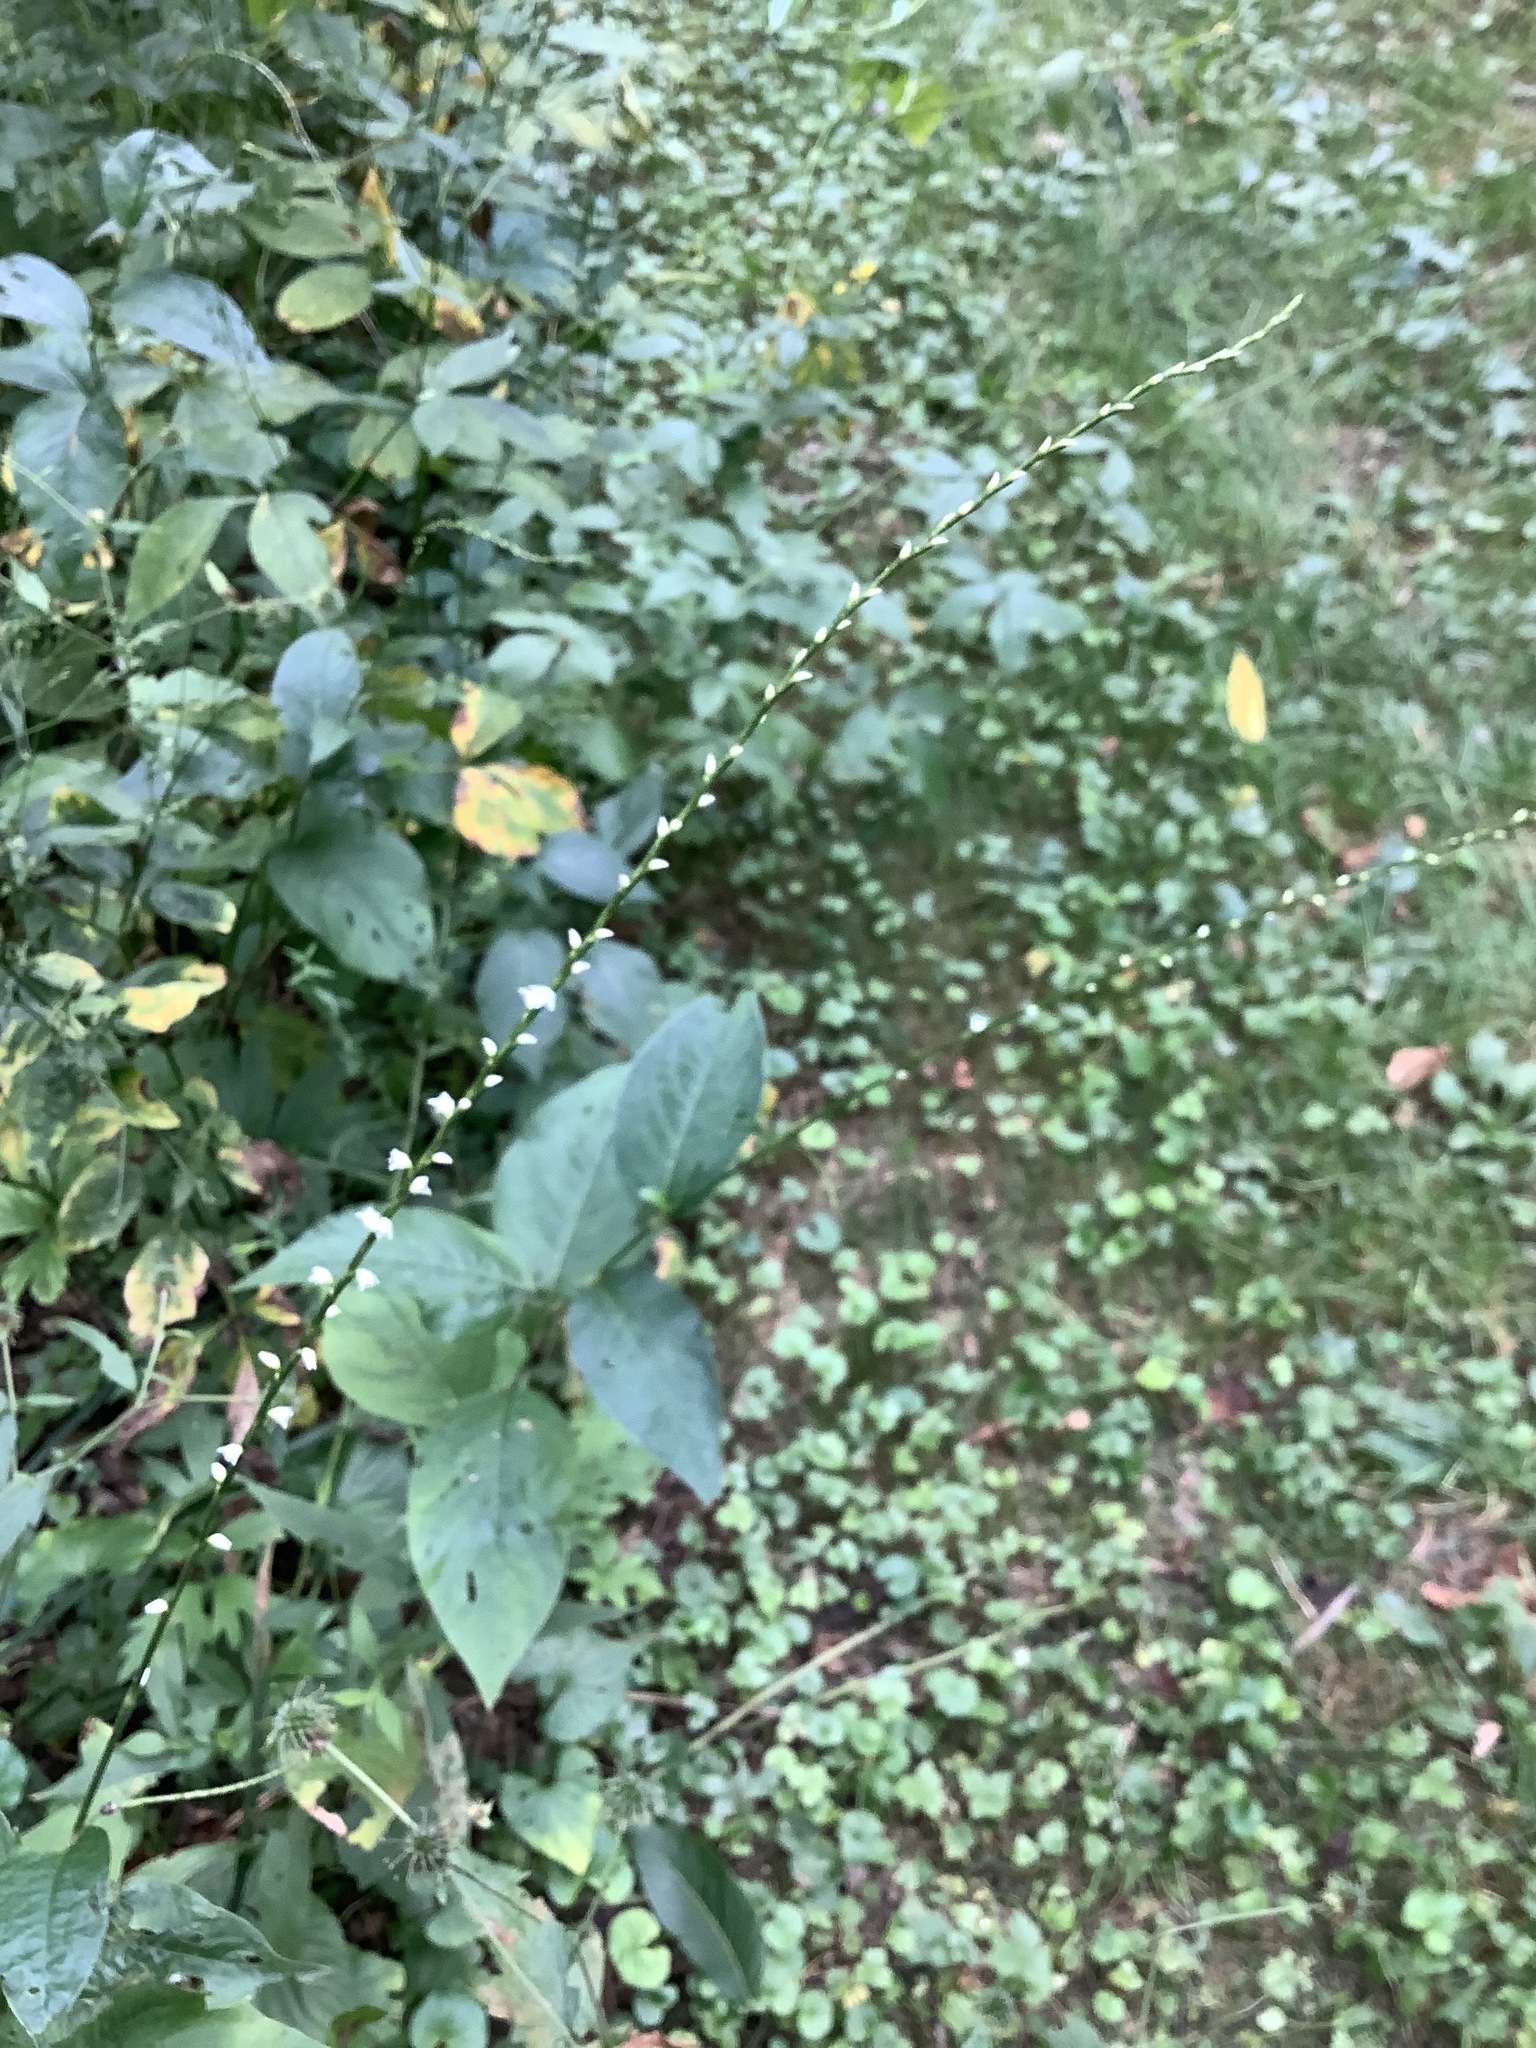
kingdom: Plantae
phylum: Tracheophyta
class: Magnoliopsida
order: Caryophyllales
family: Polygonaceae
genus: Persicaria
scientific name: Persicaria virginiana
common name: Jumpseed
